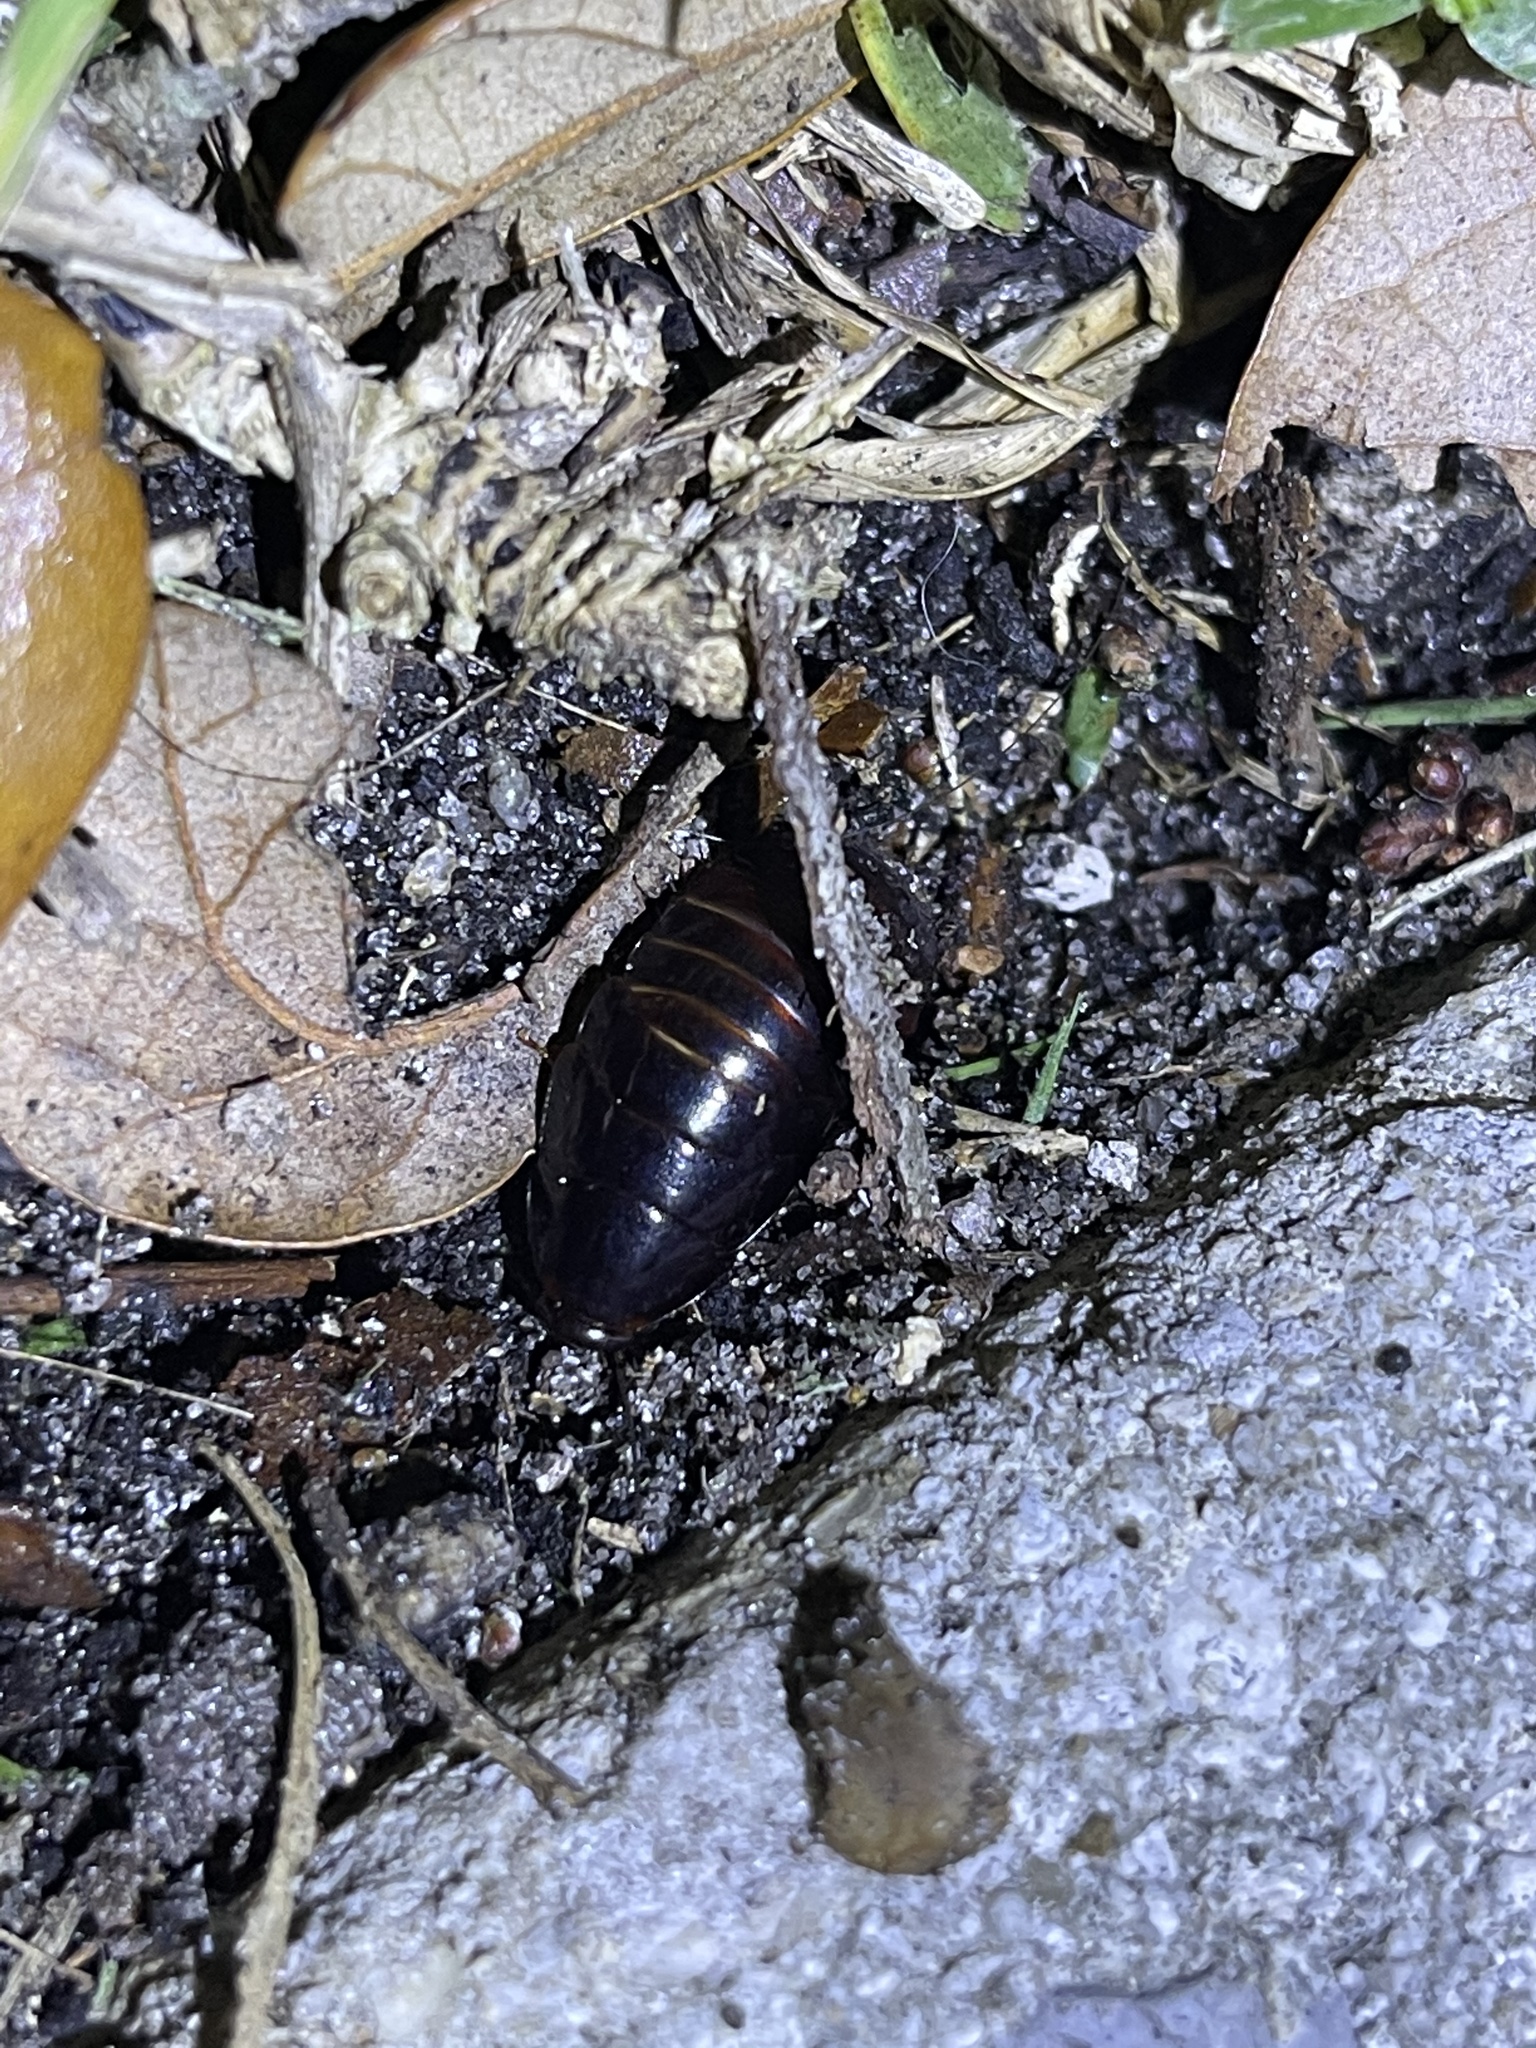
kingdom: Animalia
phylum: Arthropoda
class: Insecta
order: Blattodea
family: Blaberidae
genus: Pycnoscelus
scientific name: Pycnoscelus surinamensis
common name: Surinam cockroach
